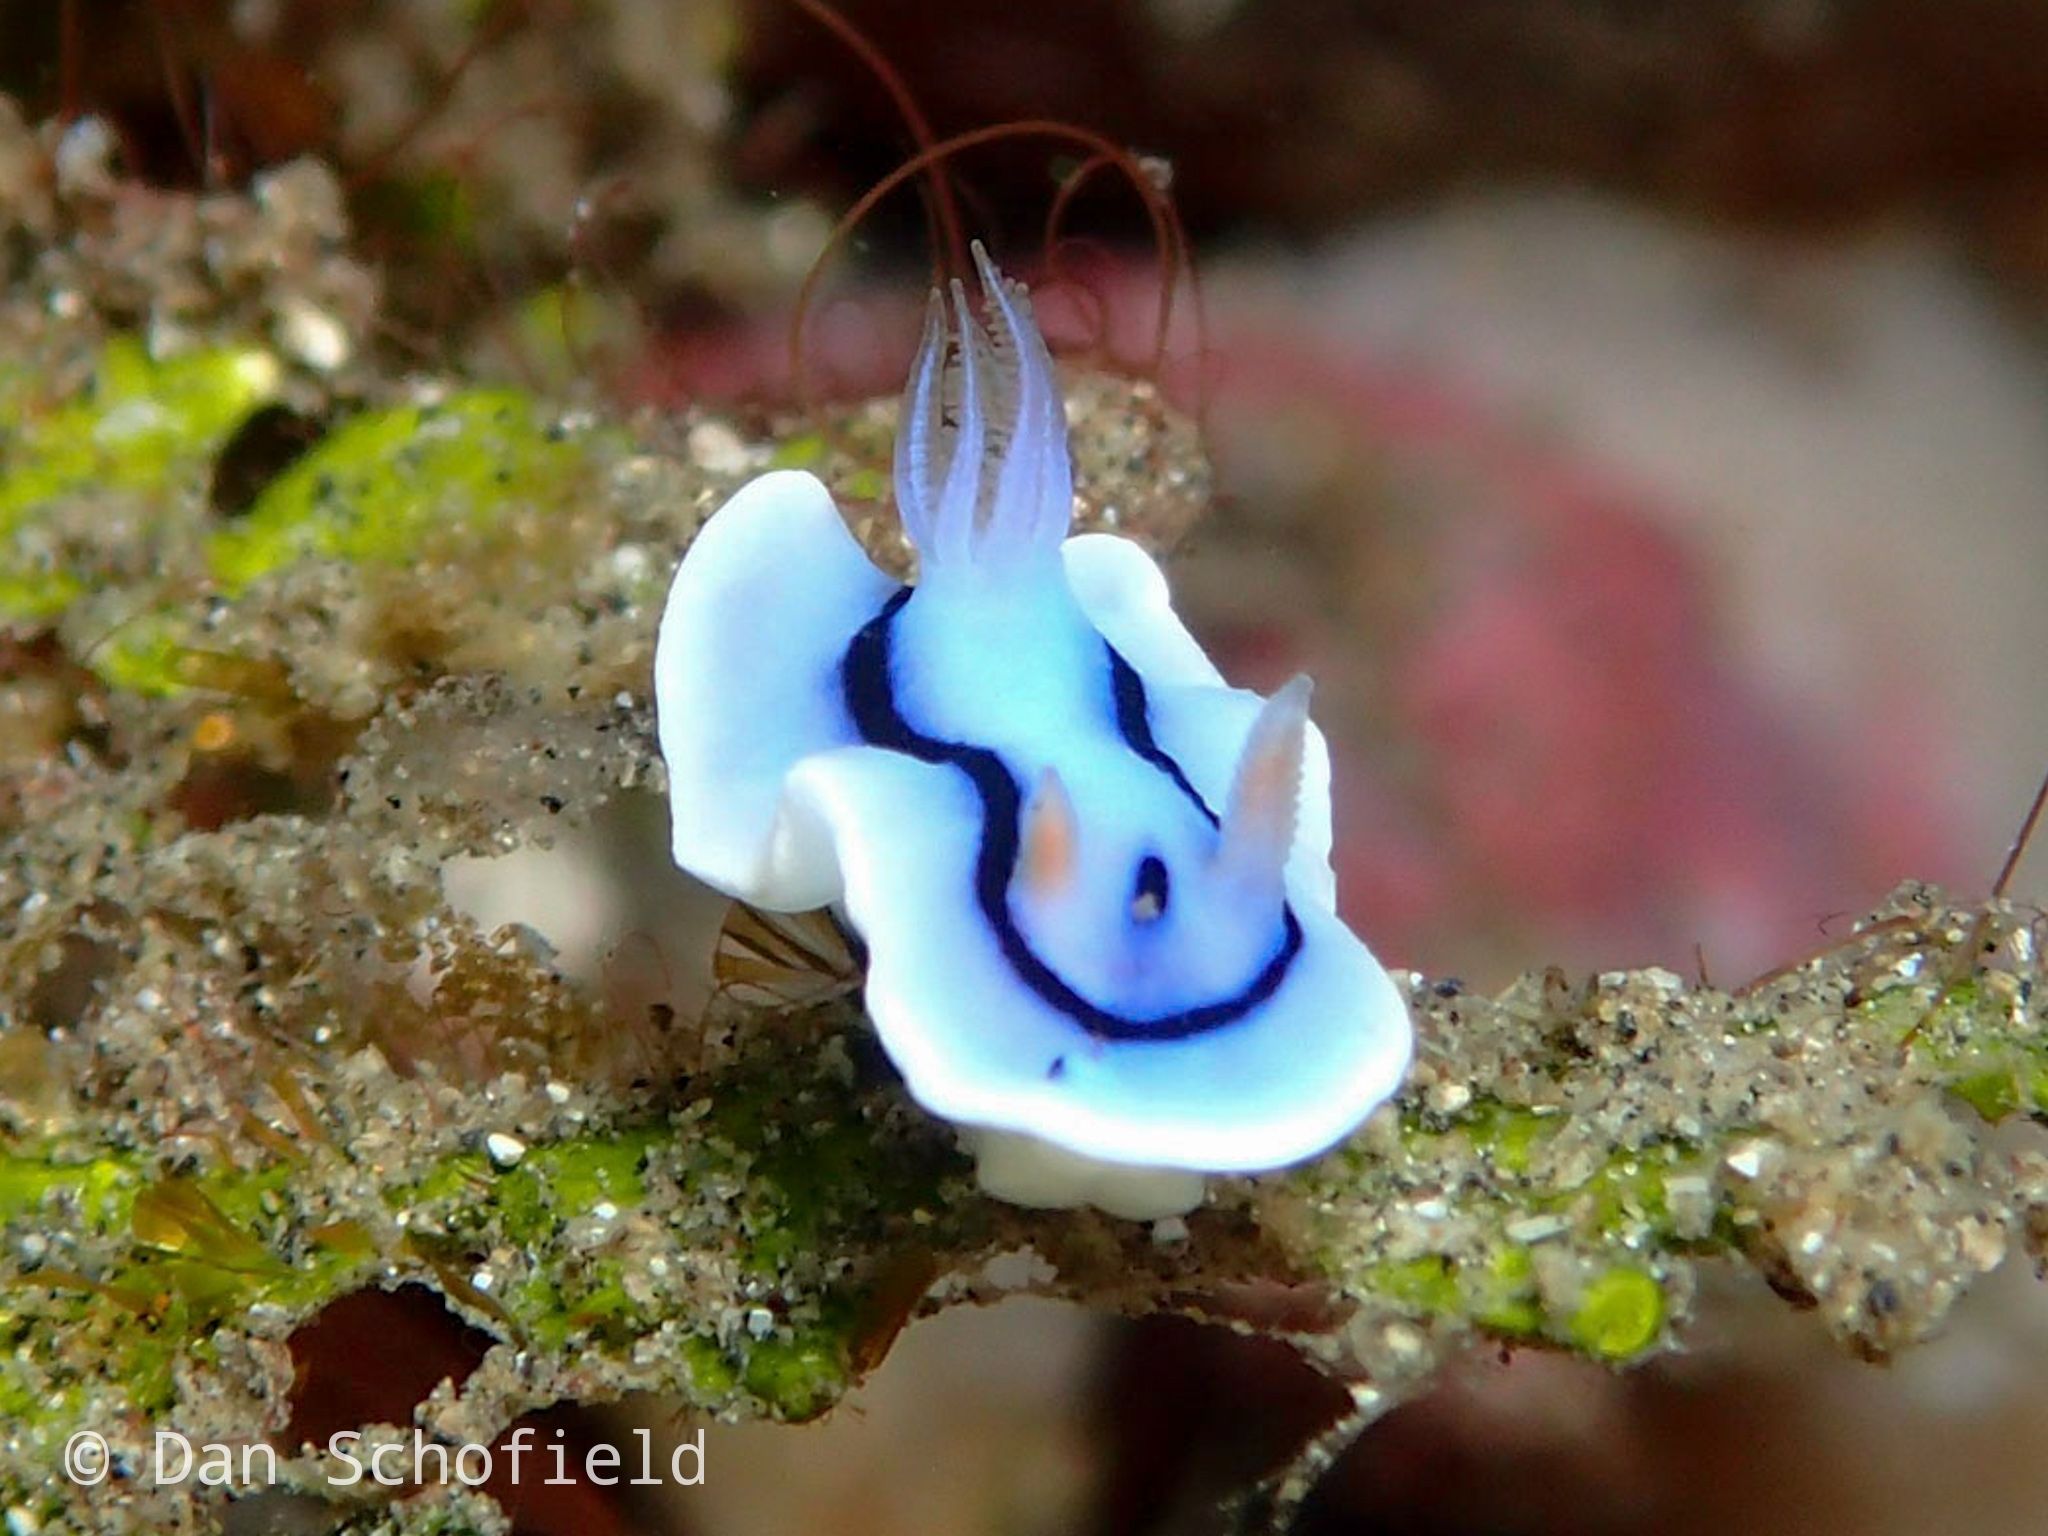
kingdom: Animalia
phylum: Mollusca
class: Gastropoda
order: Nudibranchia
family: Chromodorididae
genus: Chromodoris
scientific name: Chromodoris lochi
